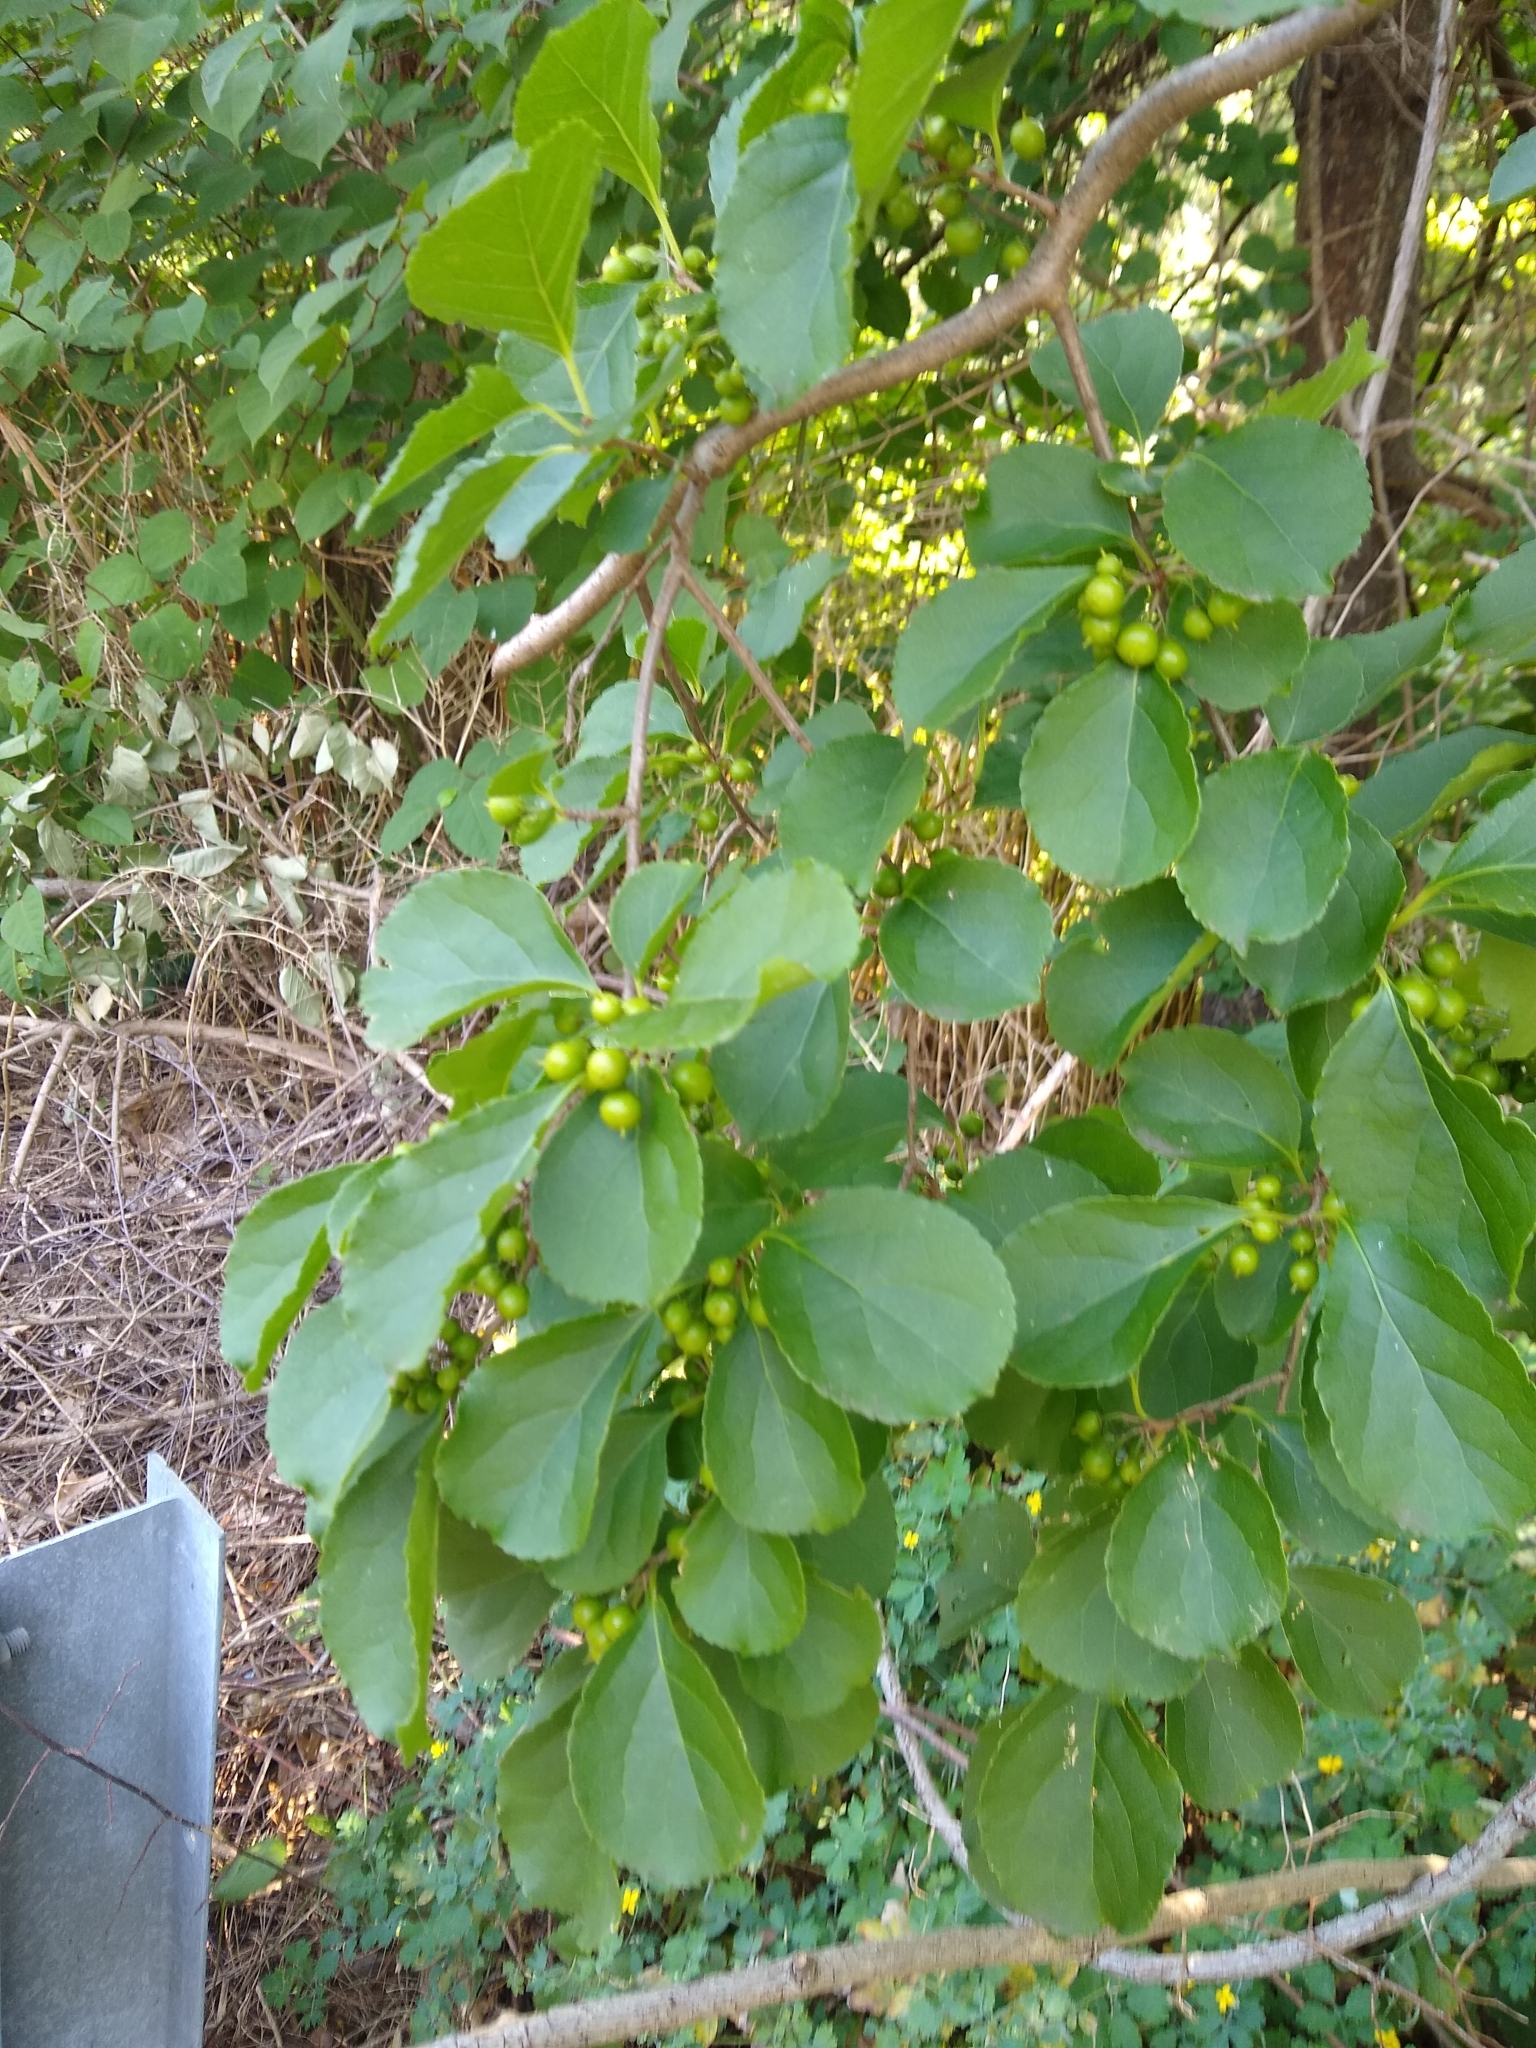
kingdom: Plantae
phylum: Tracheophyta
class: Magnoliopsida
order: Celastrales
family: Celastraceae
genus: Celastrus
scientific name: Celastrus orbiculatus
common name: Oriental bittersweet
